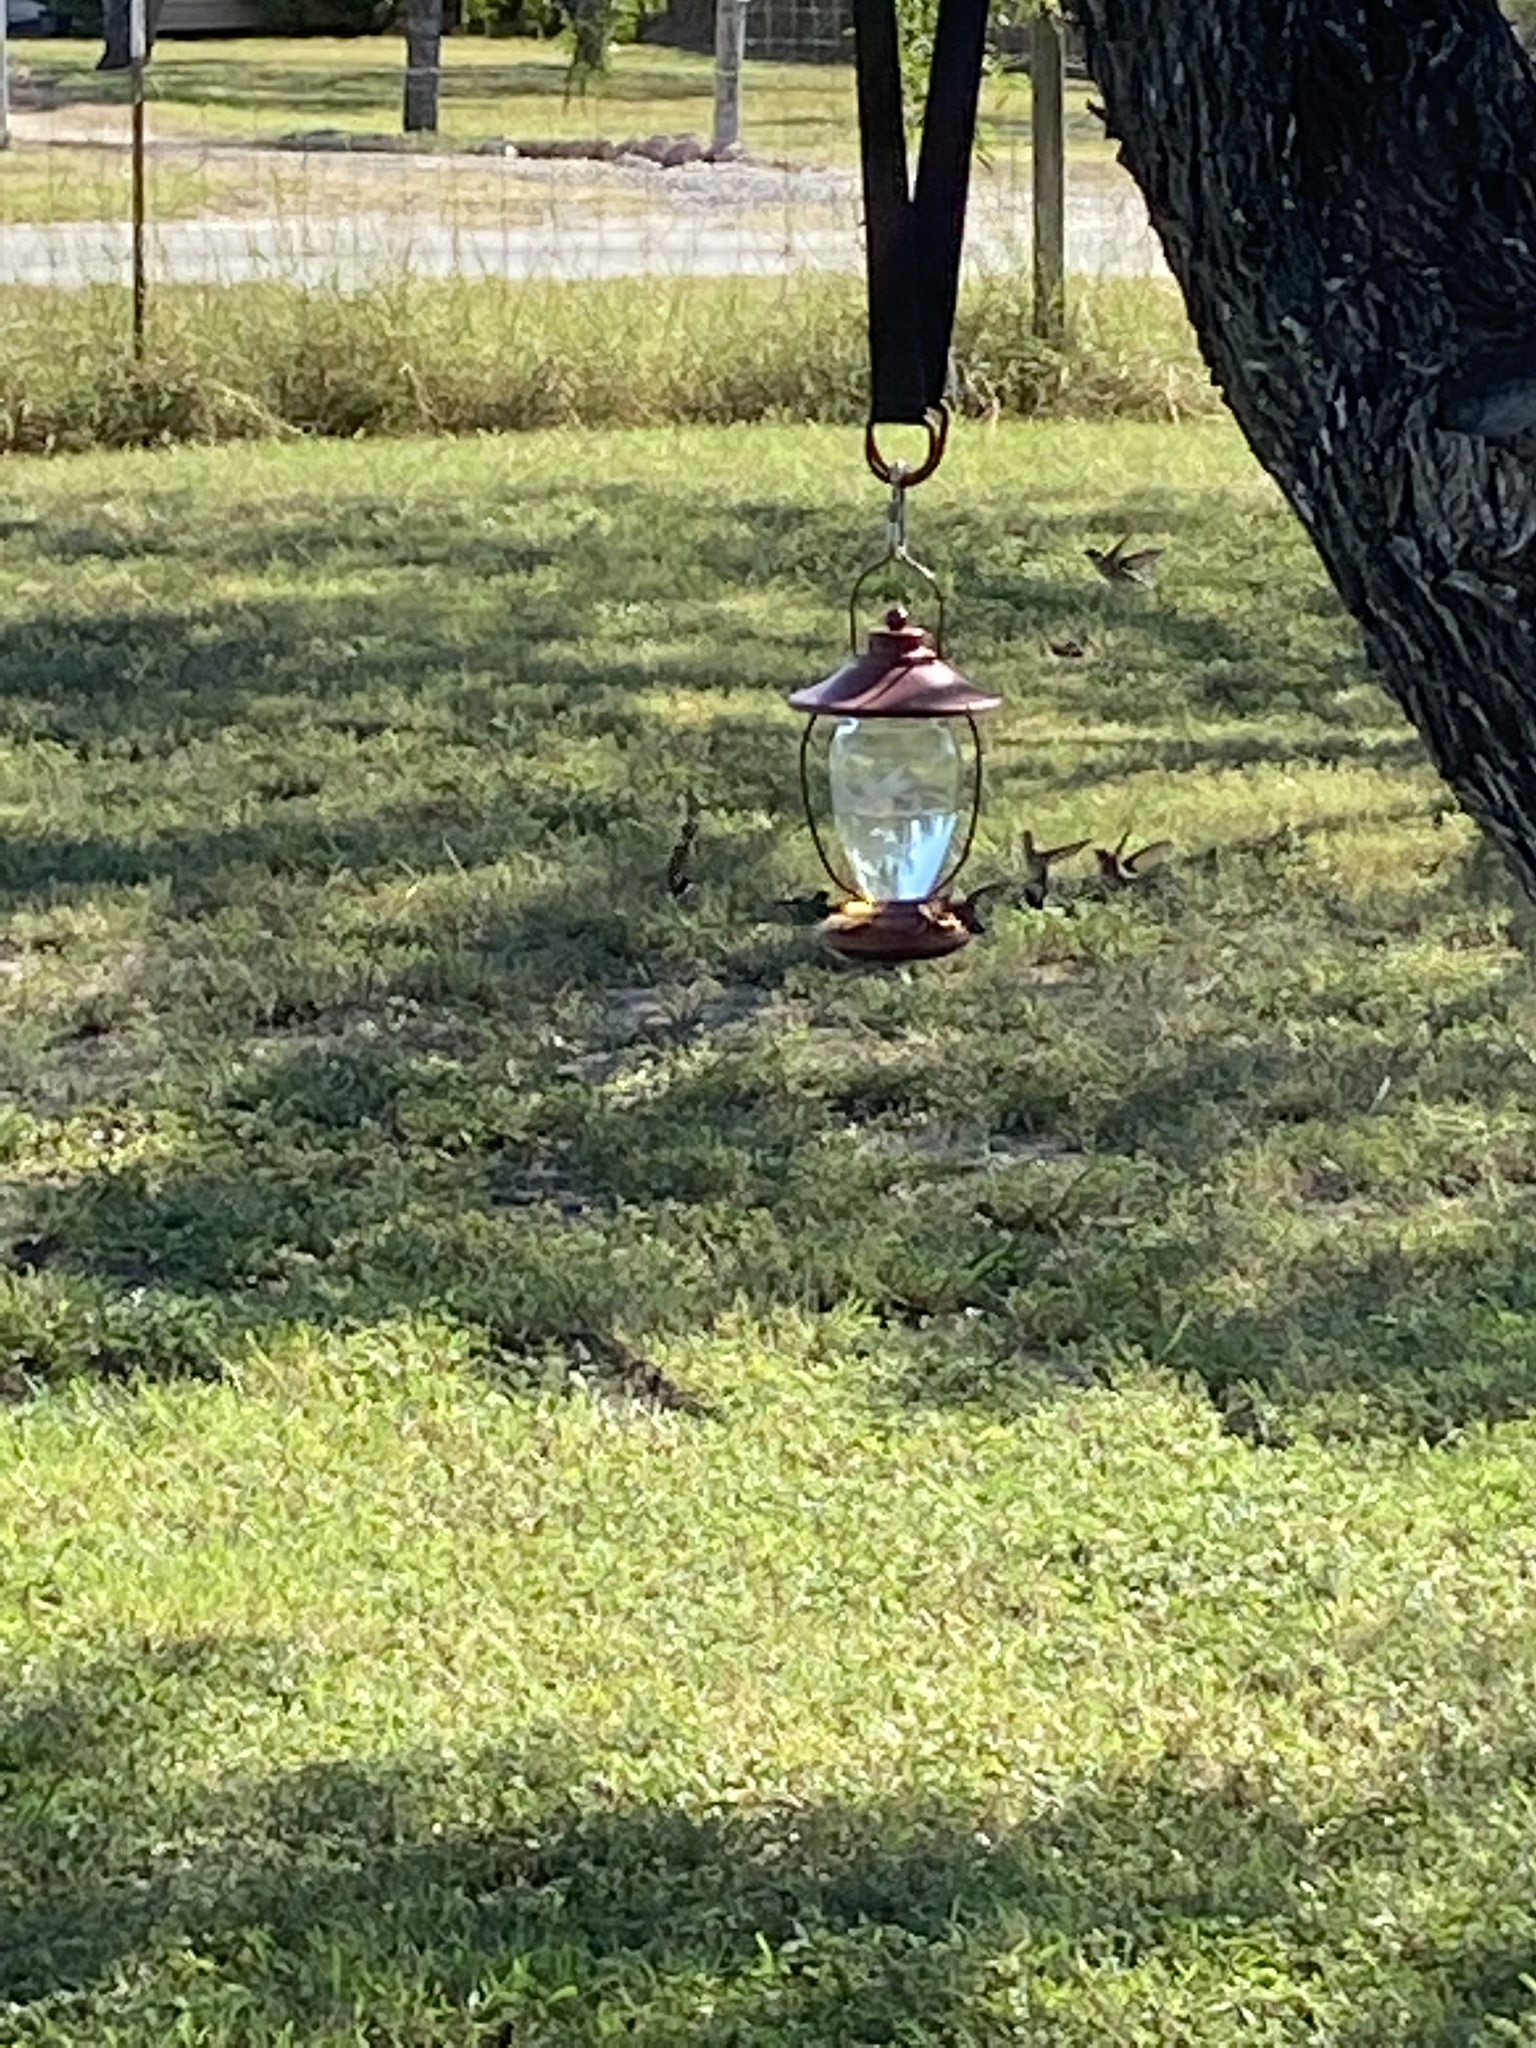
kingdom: Animalia
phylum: Chordata
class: Aves
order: Apodiformes
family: Trochilidae
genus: Archilochus
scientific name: Archilochus colubris
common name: Ruby-throated hummingbird
